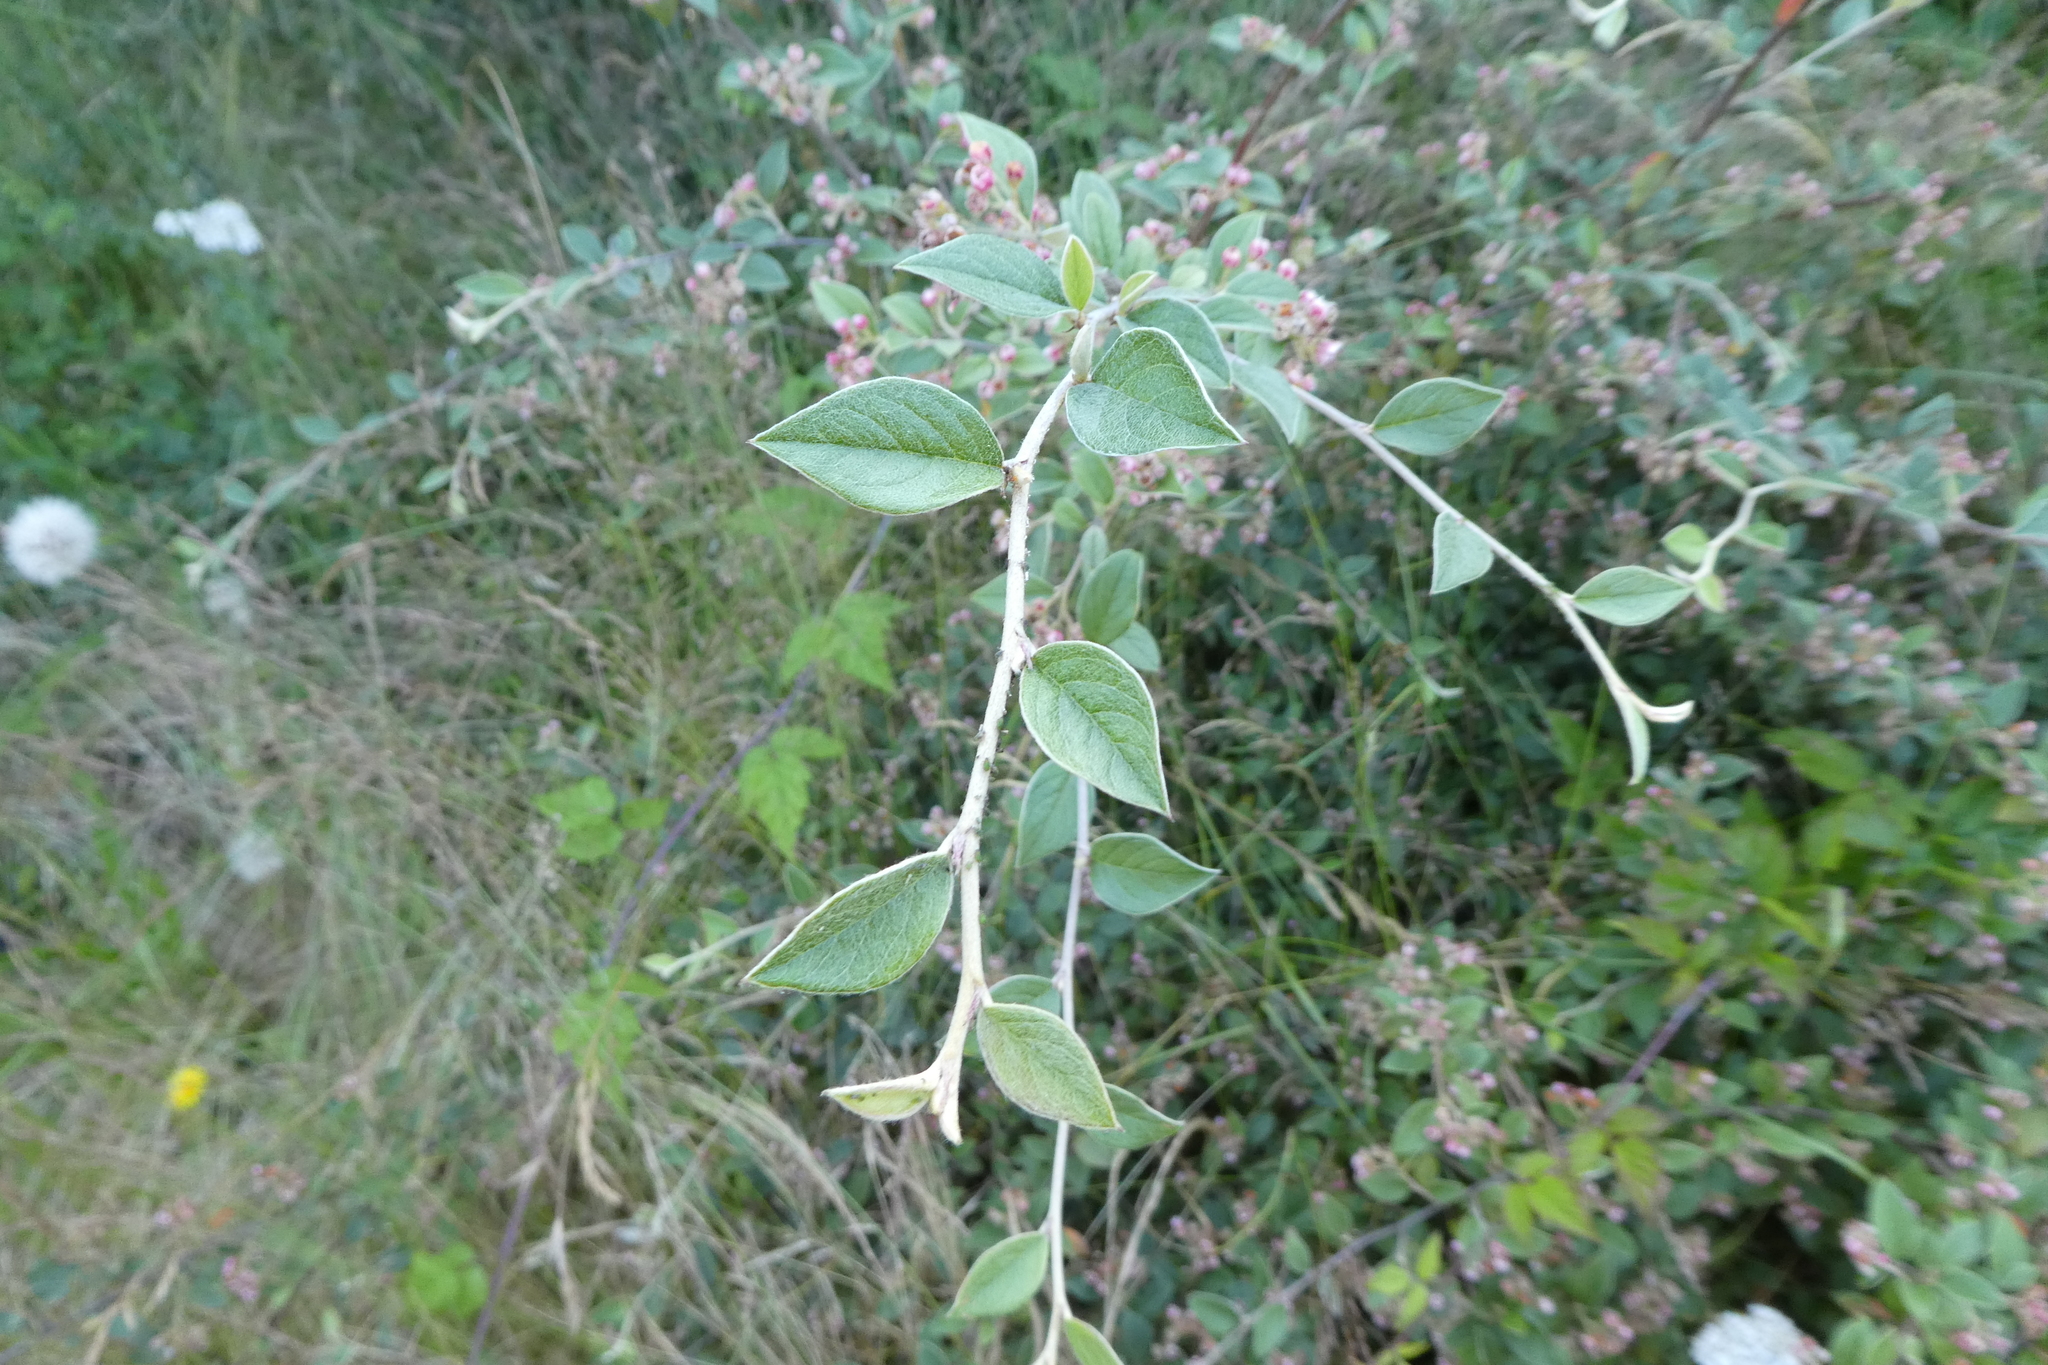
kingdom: Plantae
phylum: Tracheophyta
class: Magnoliopsida
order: Rosales
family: Rosaceae
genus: Cotoneaster
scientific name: Cotoneaster franchetii
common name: Franchet's cotoneaster
